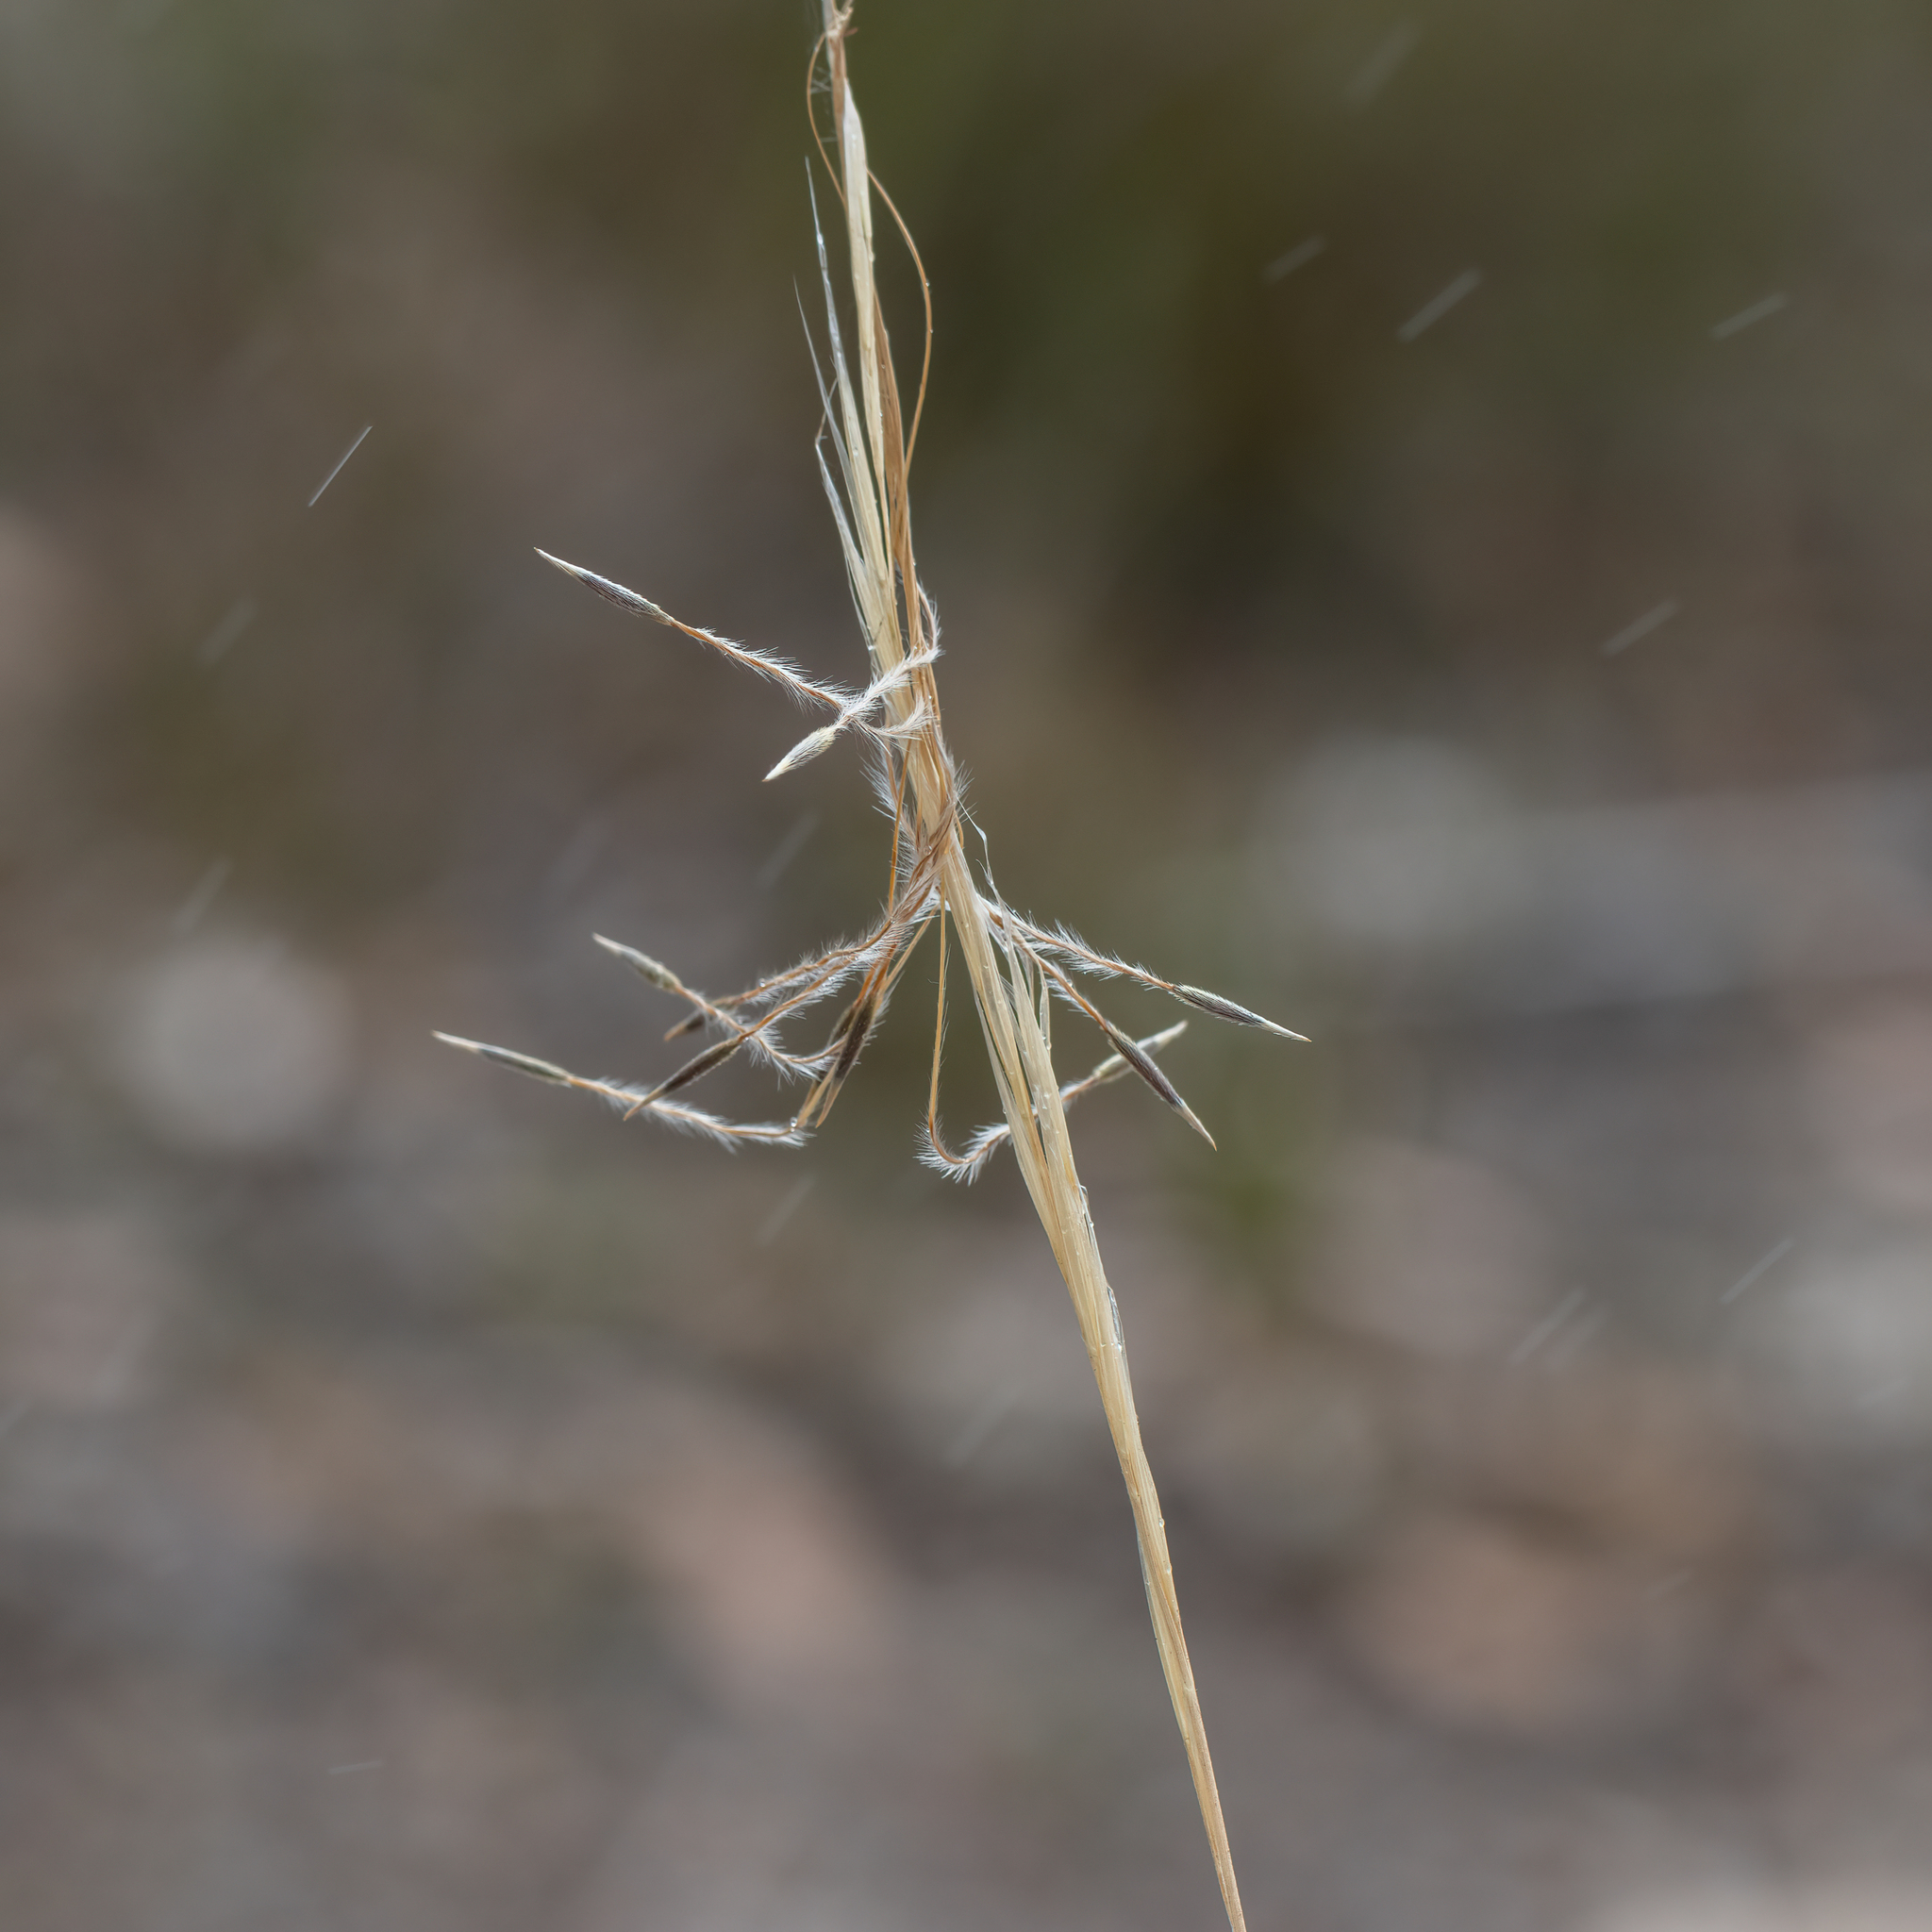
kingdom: Plantae
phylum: Tracheophyta
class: Liliopsida
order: Poales
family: Poaceae
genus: Austrostipa
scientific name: Austrostipa mollis
